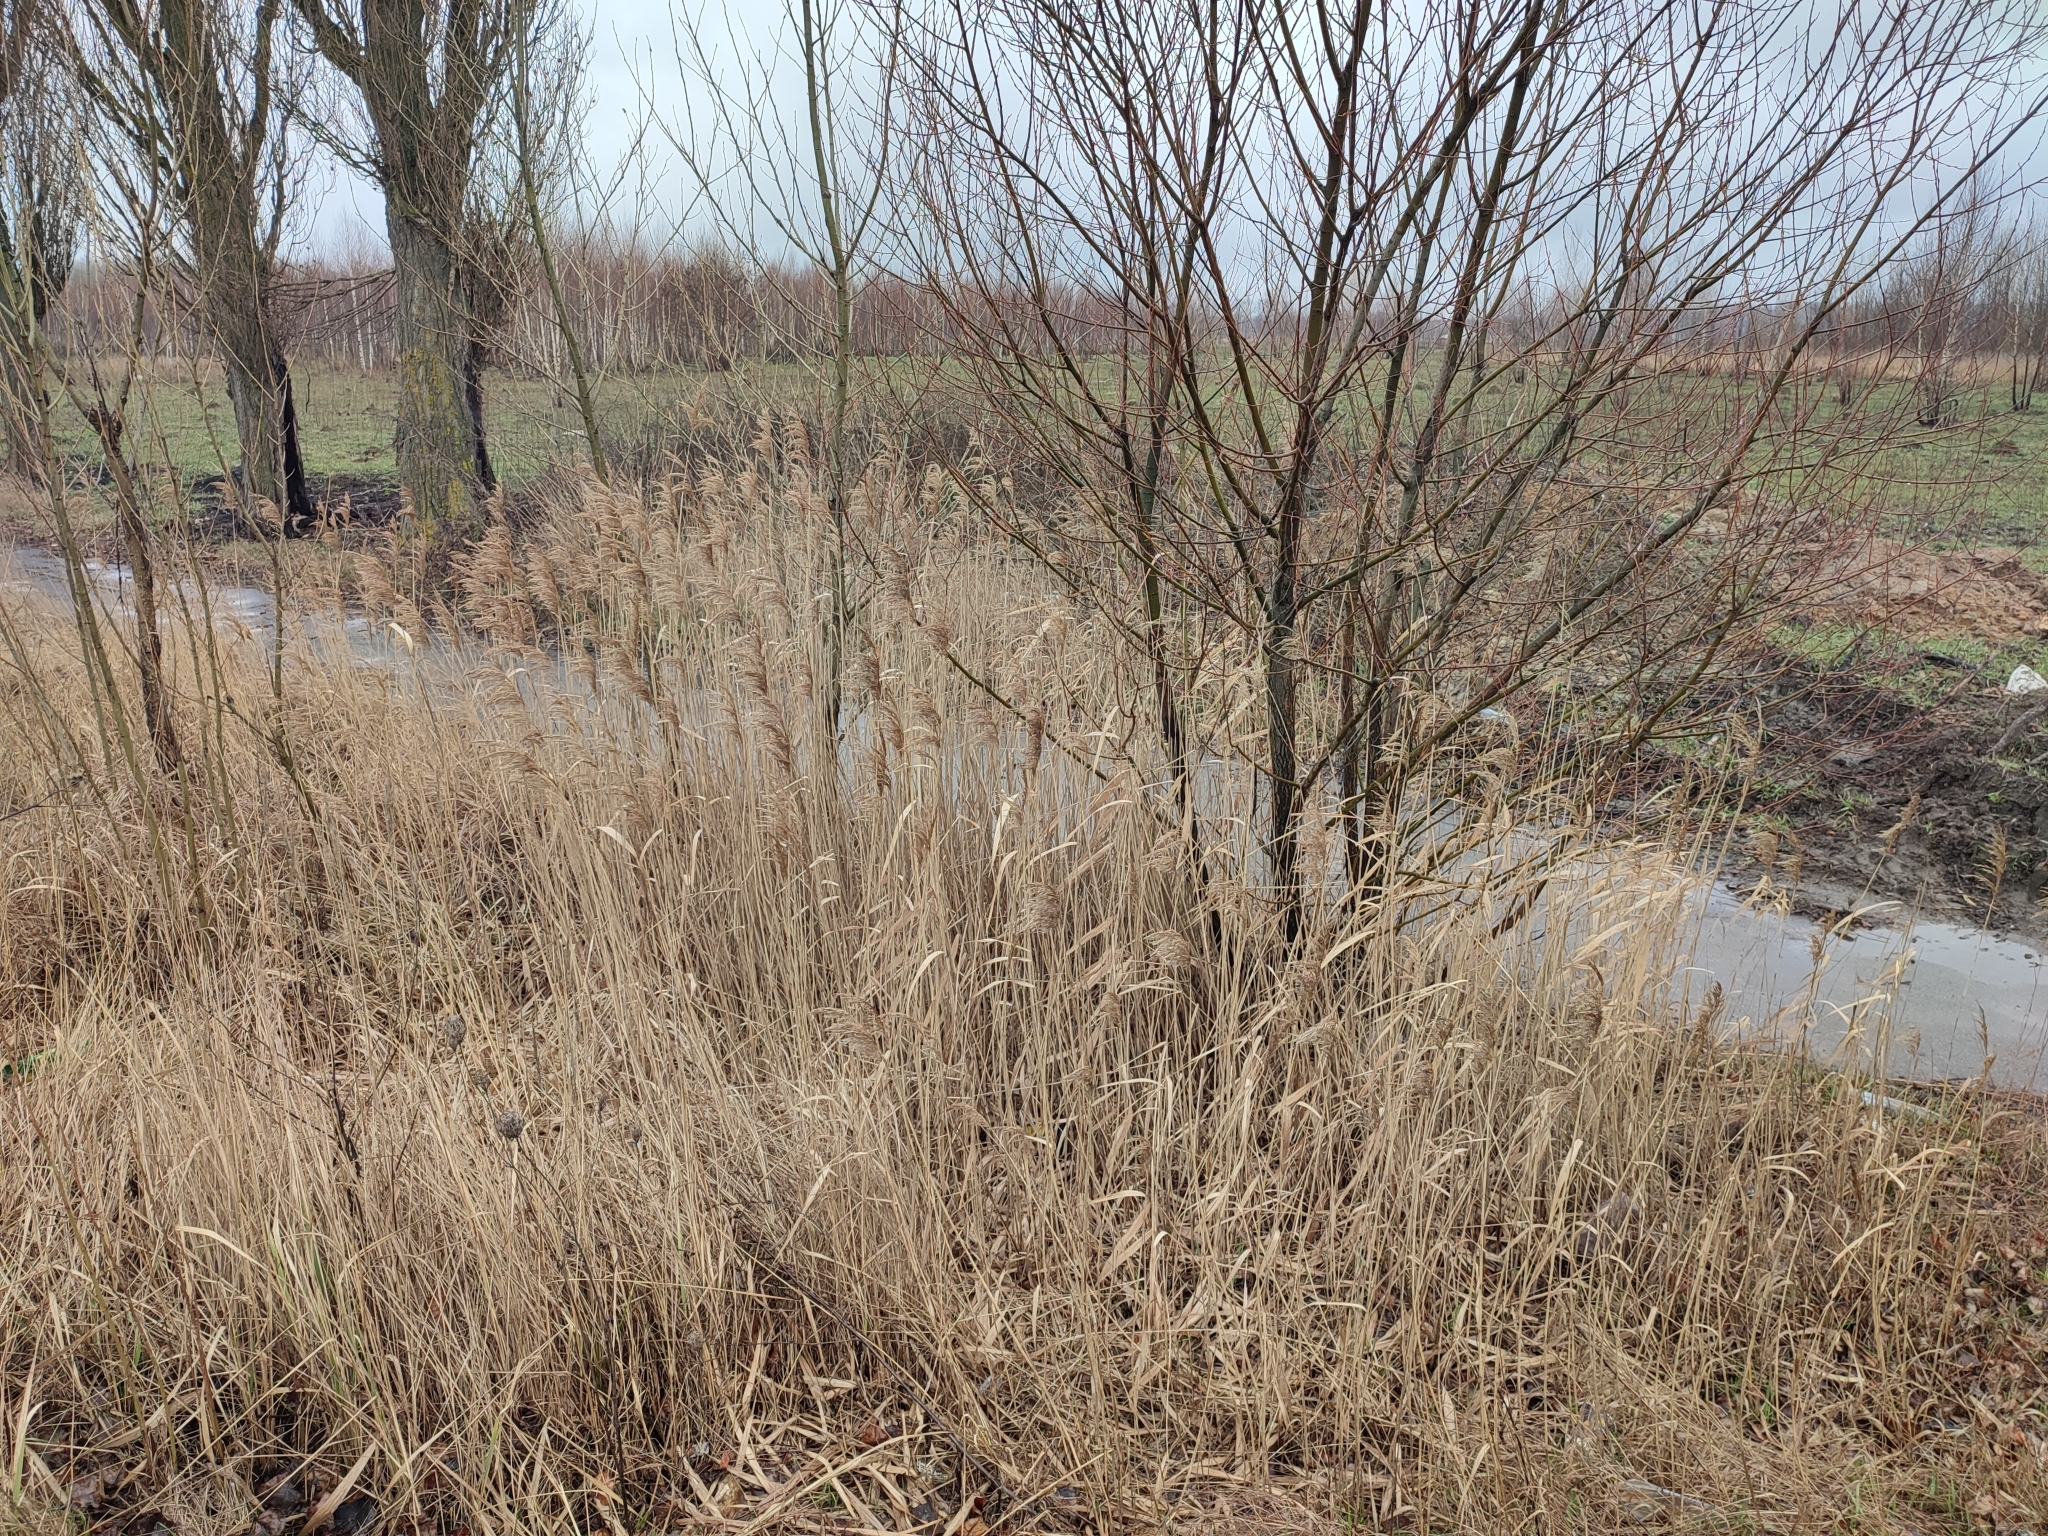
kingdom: Plantae
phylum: Tracheophyta
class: Liliopsida
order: Poales
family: Poaceae
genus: Phragmites
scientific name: Phragmites australis
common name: Common reed
